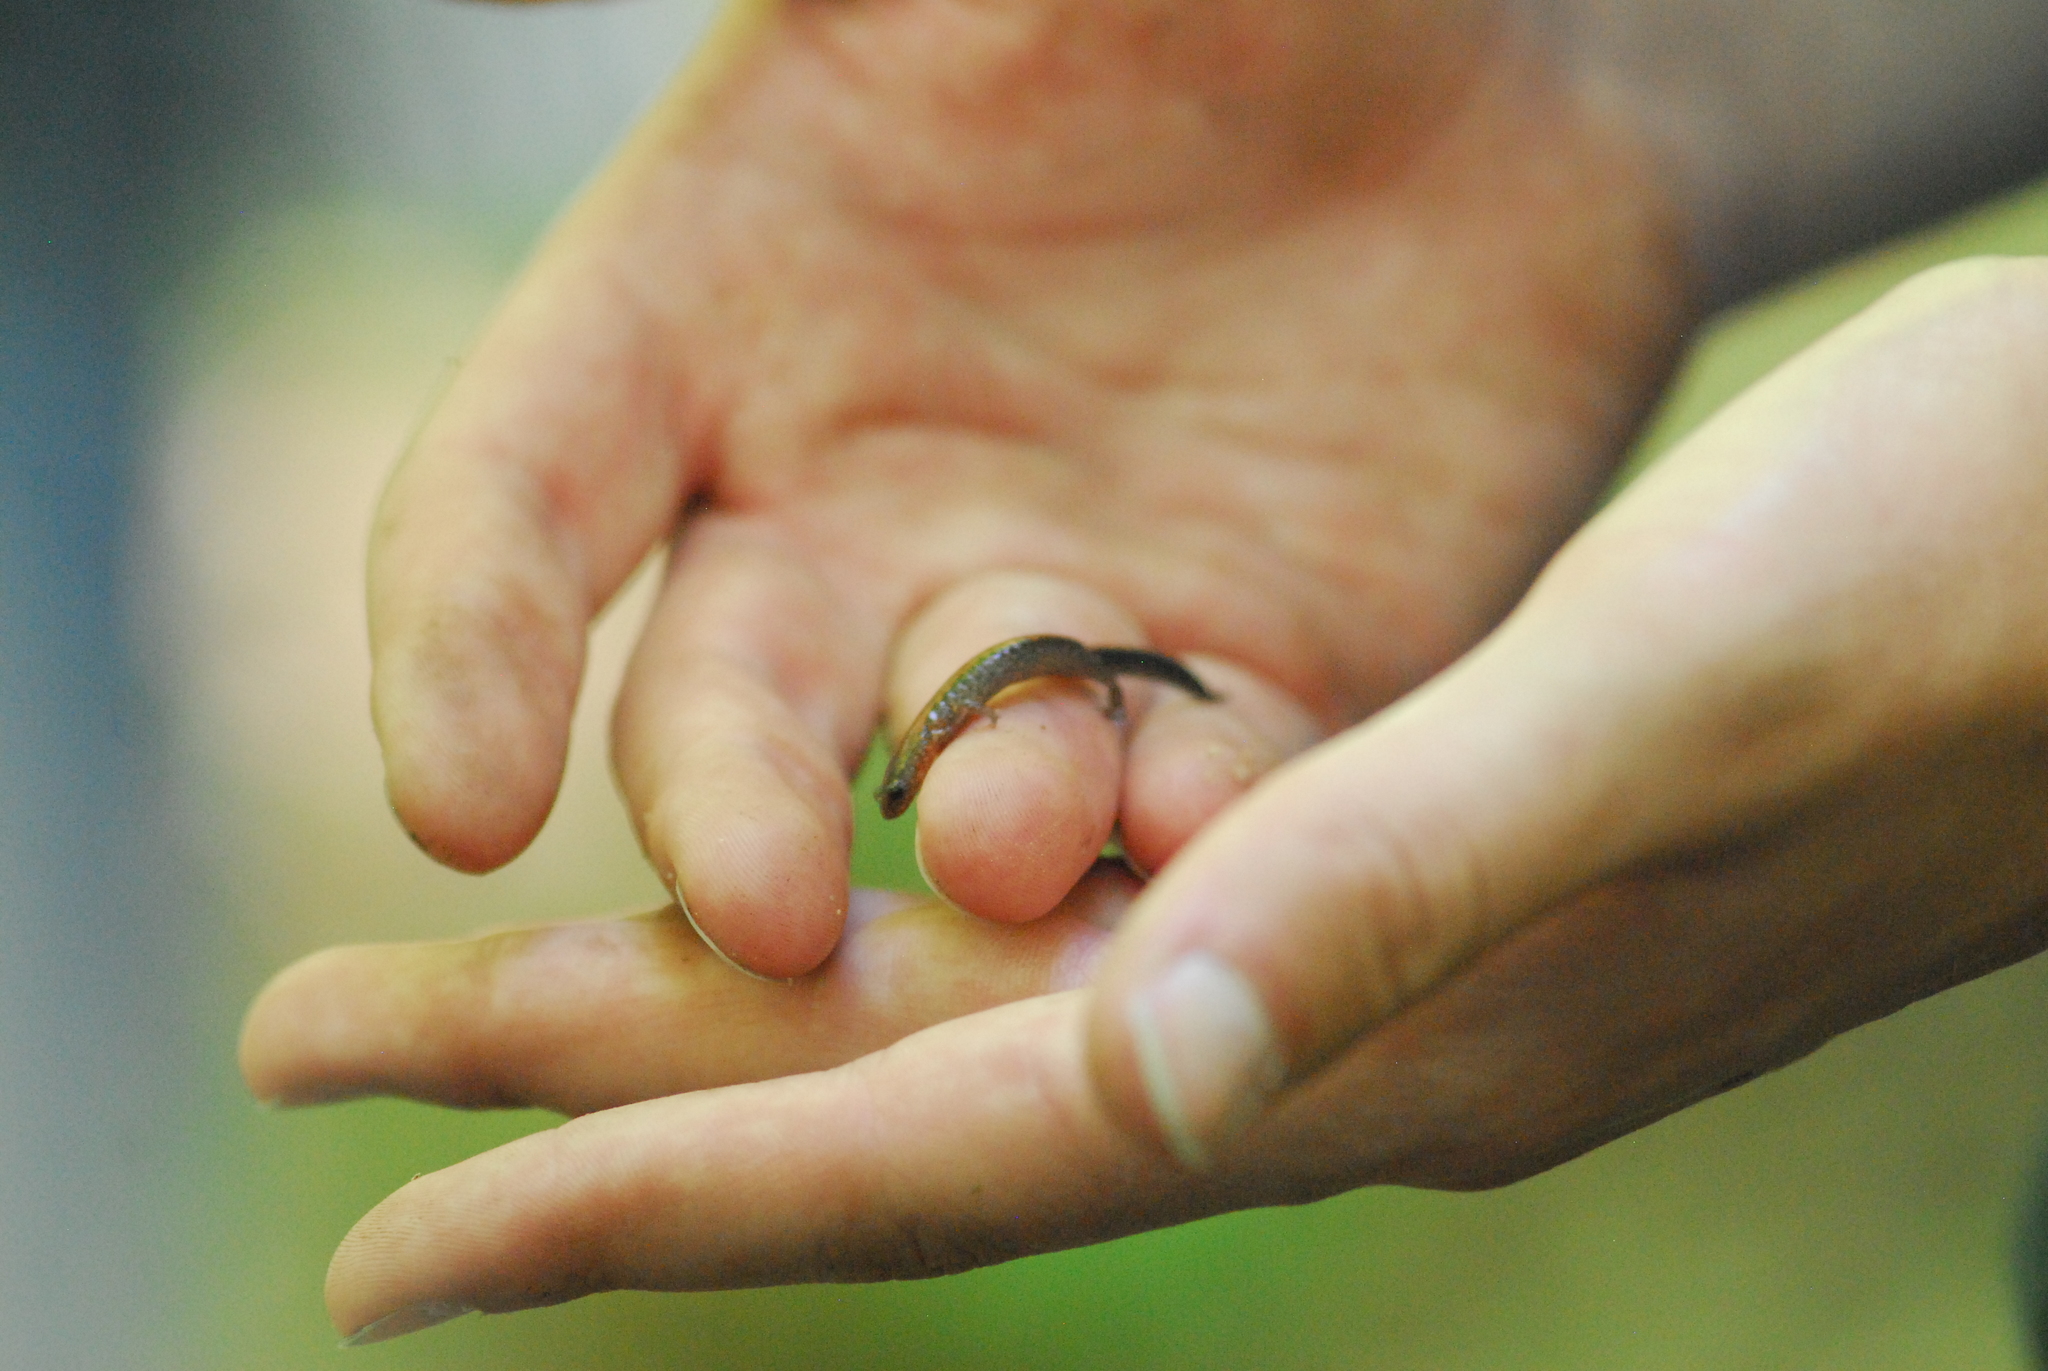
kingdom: Animalia
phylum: Chordata
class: Amphibia
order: Caudata
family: Plethodontidae
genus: Plethodon
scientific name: Plethodon cinereus
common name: Redback salamander
